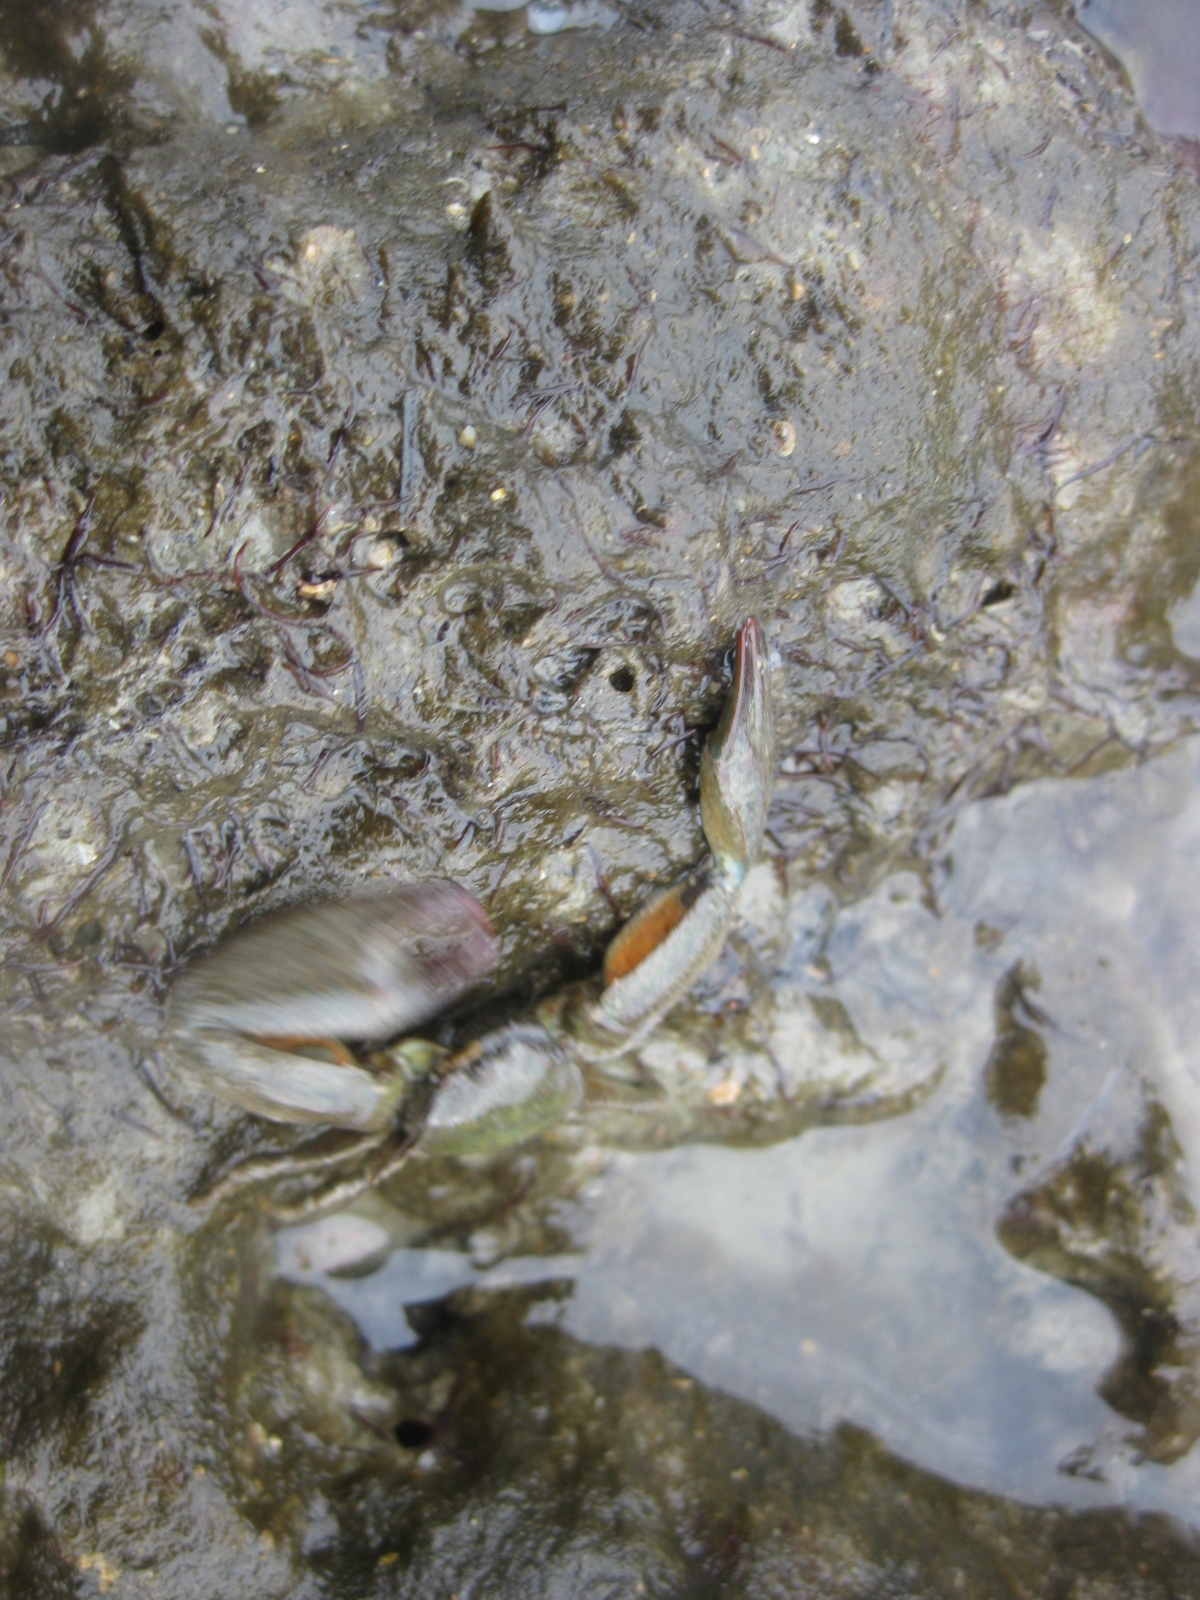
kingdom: Animalia
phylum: Arthropoda
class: Malacostraca
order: Decapoda
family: Porcellanidae
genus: Petrolisthes
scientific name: Petrolisthes elongatus
